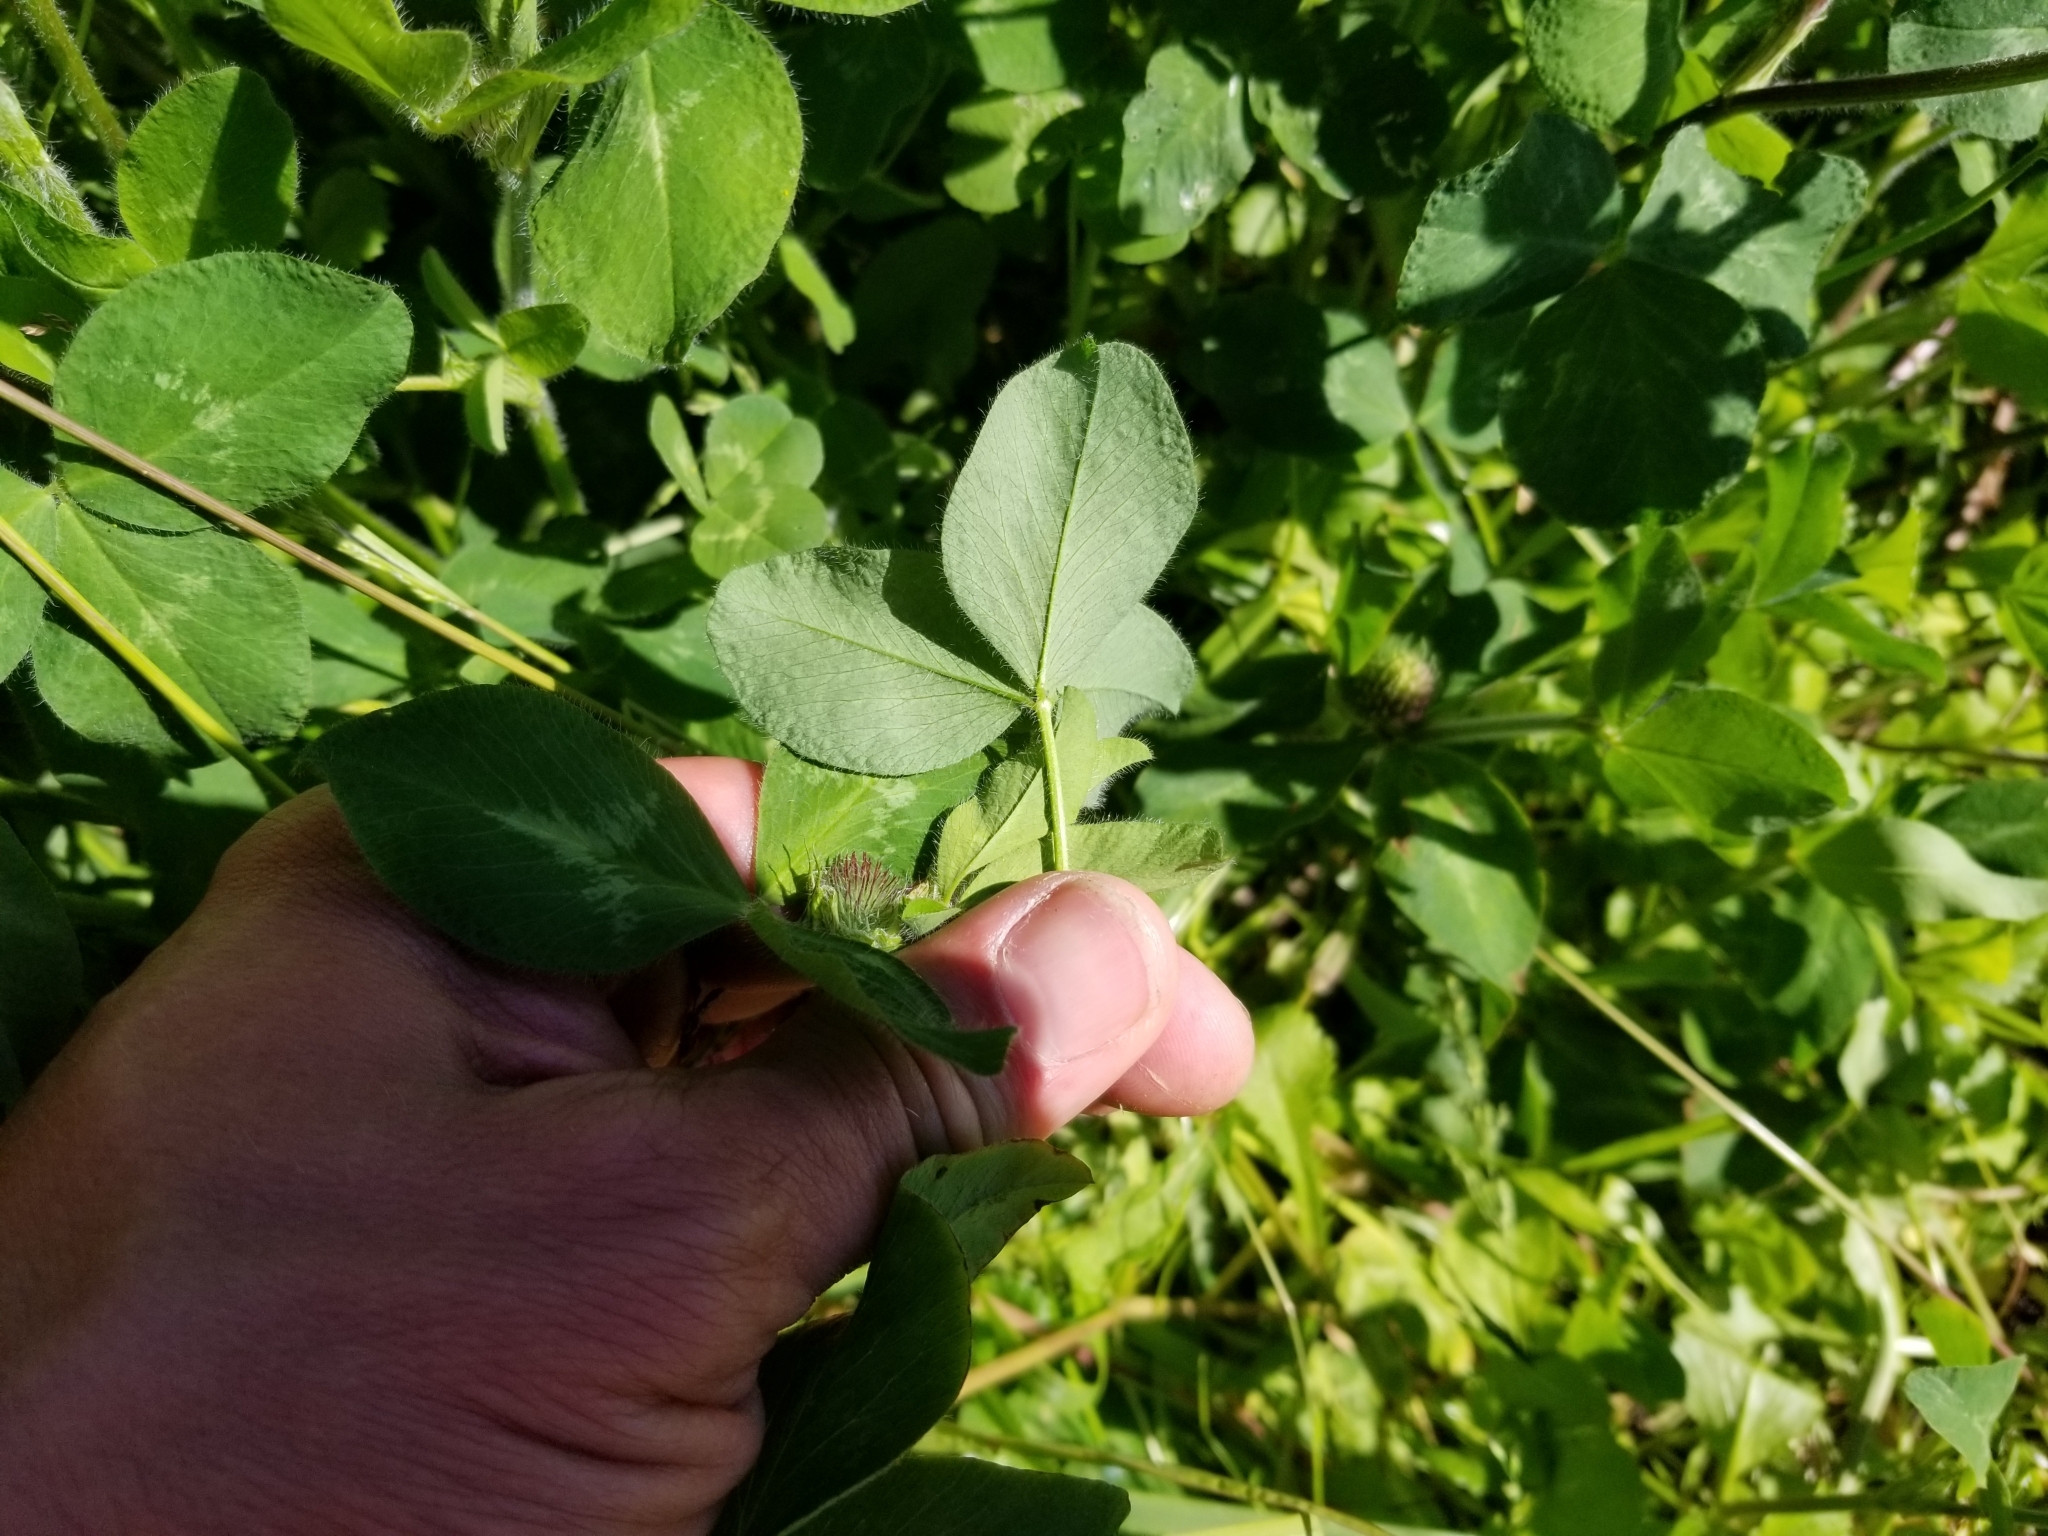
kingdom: Plantae
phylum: Tracheophyta
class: Magnoliopsida
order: Fabales
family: Fabaceae
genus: Trifolium
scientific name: Trifolium pratense
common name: Red clover
